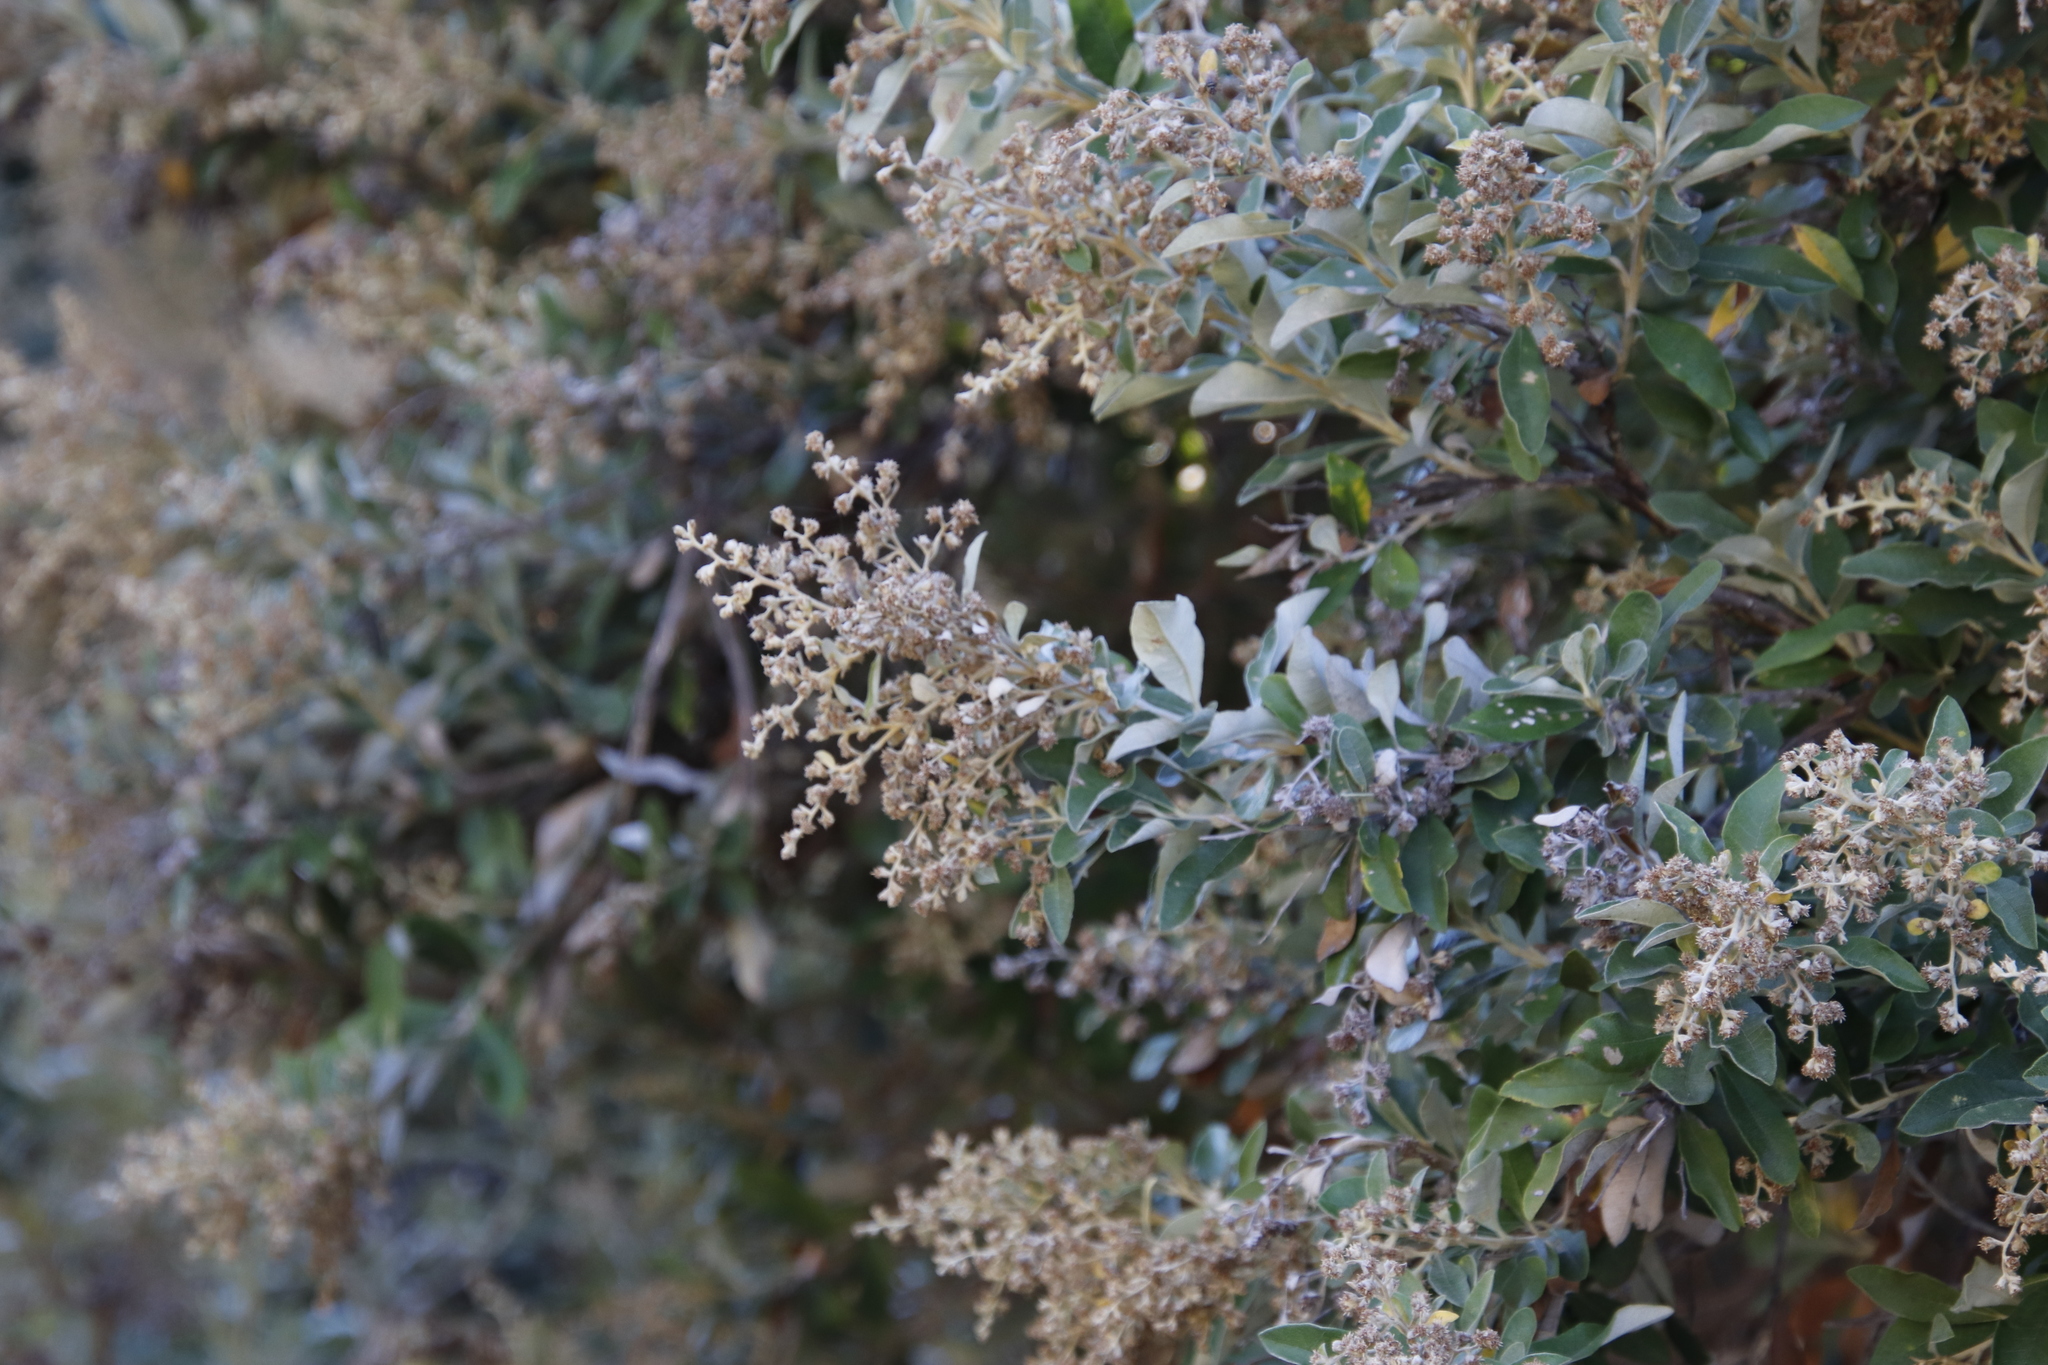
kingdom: Plantae
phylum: Tracheophyta
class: Magnoliopsida
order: Asterales
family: Asteraceae
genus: Tarchonanthus
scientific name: Tarchonanthus littoralis
